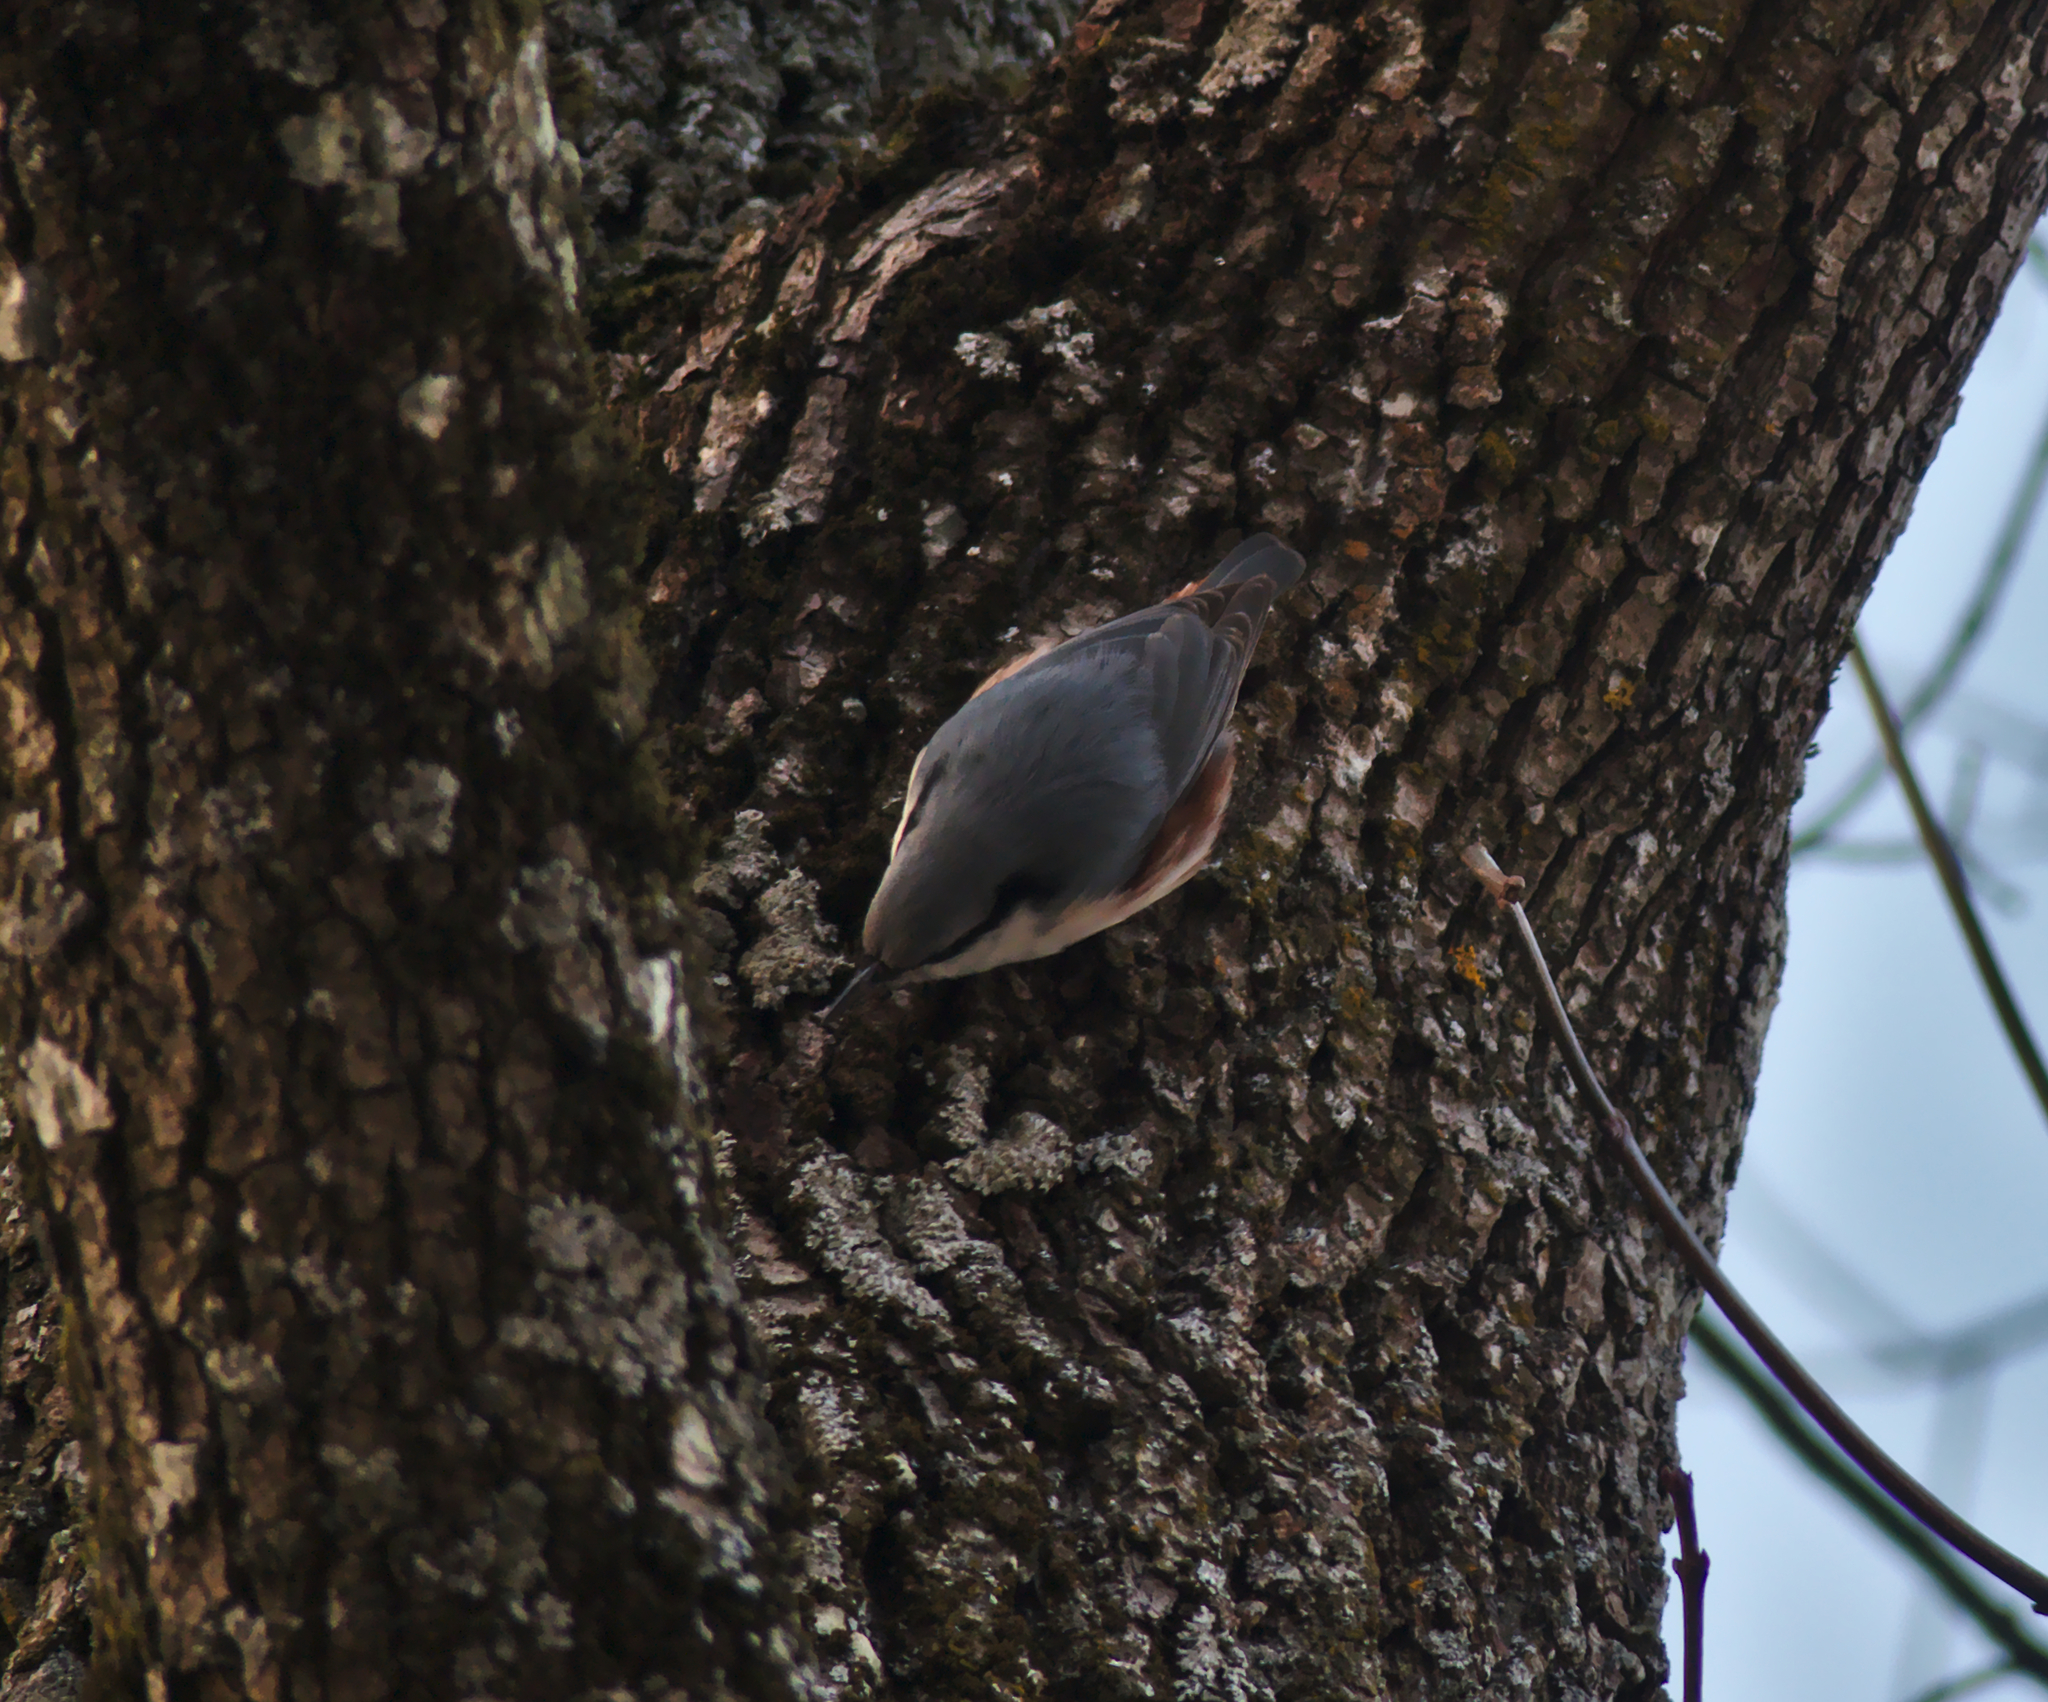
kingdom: Animalia
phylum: Chordata
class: Aves
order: Passeriformes
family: Sittidae
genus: Sitta
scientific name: Sitta europaea
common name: Eurasian nuthatch
